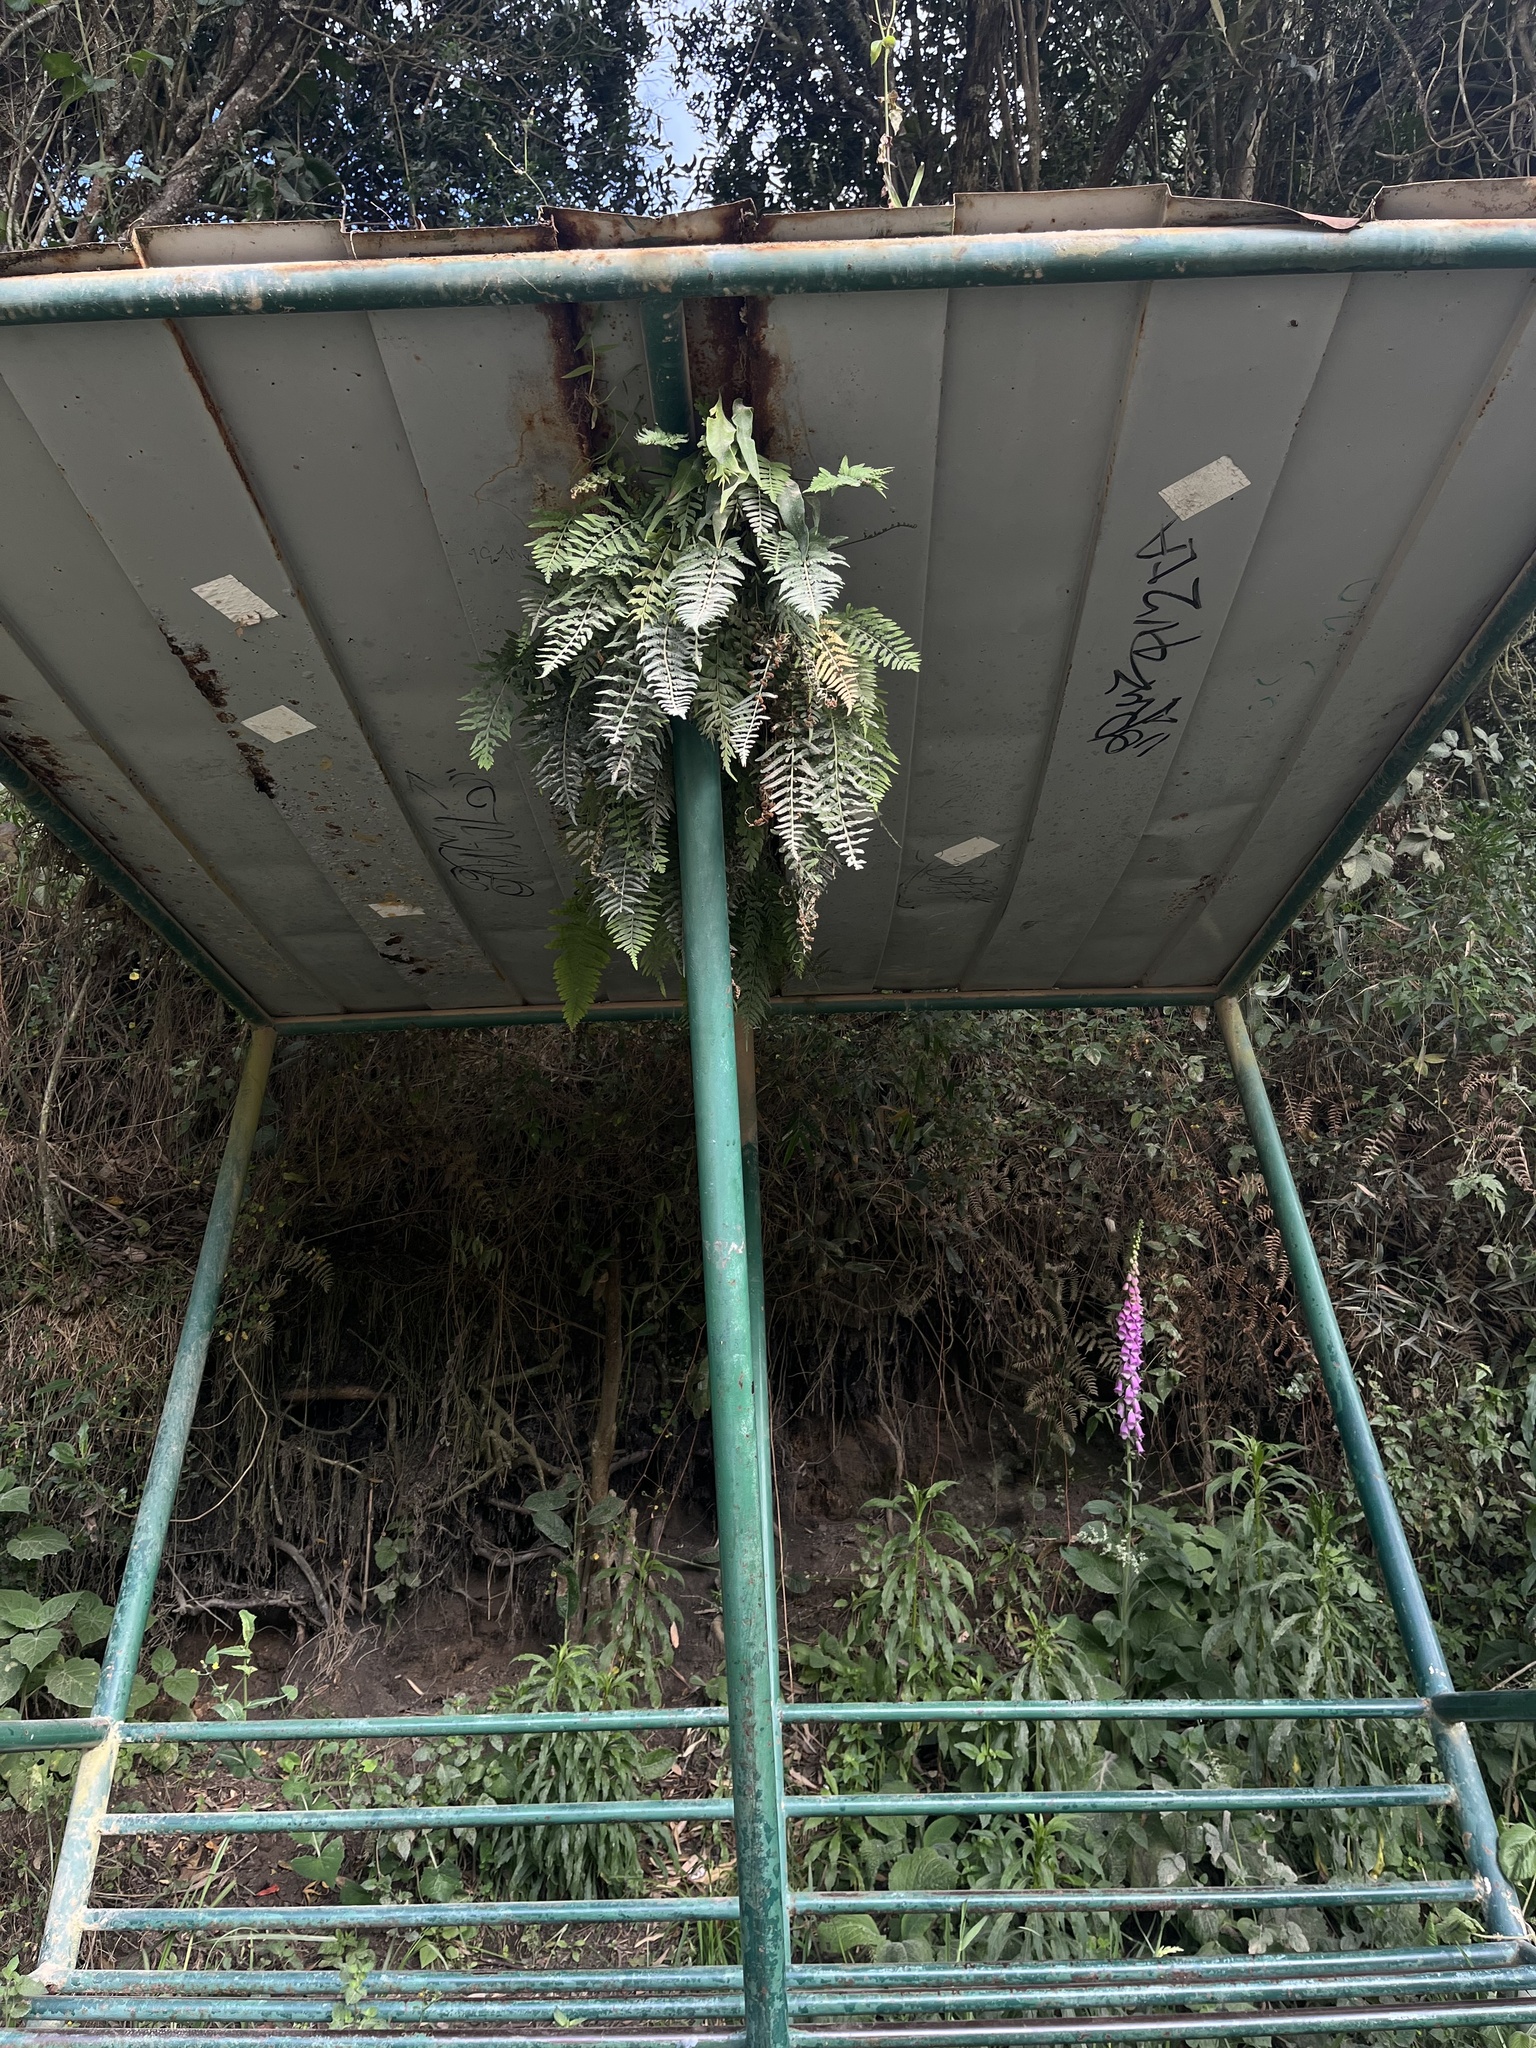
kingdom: Plantae
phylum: Tracheophyta
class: Polypodiopsida
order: Polypodiales
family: Polypodiaceae
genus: Pleopeltis
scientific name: Pleopeltis murora
